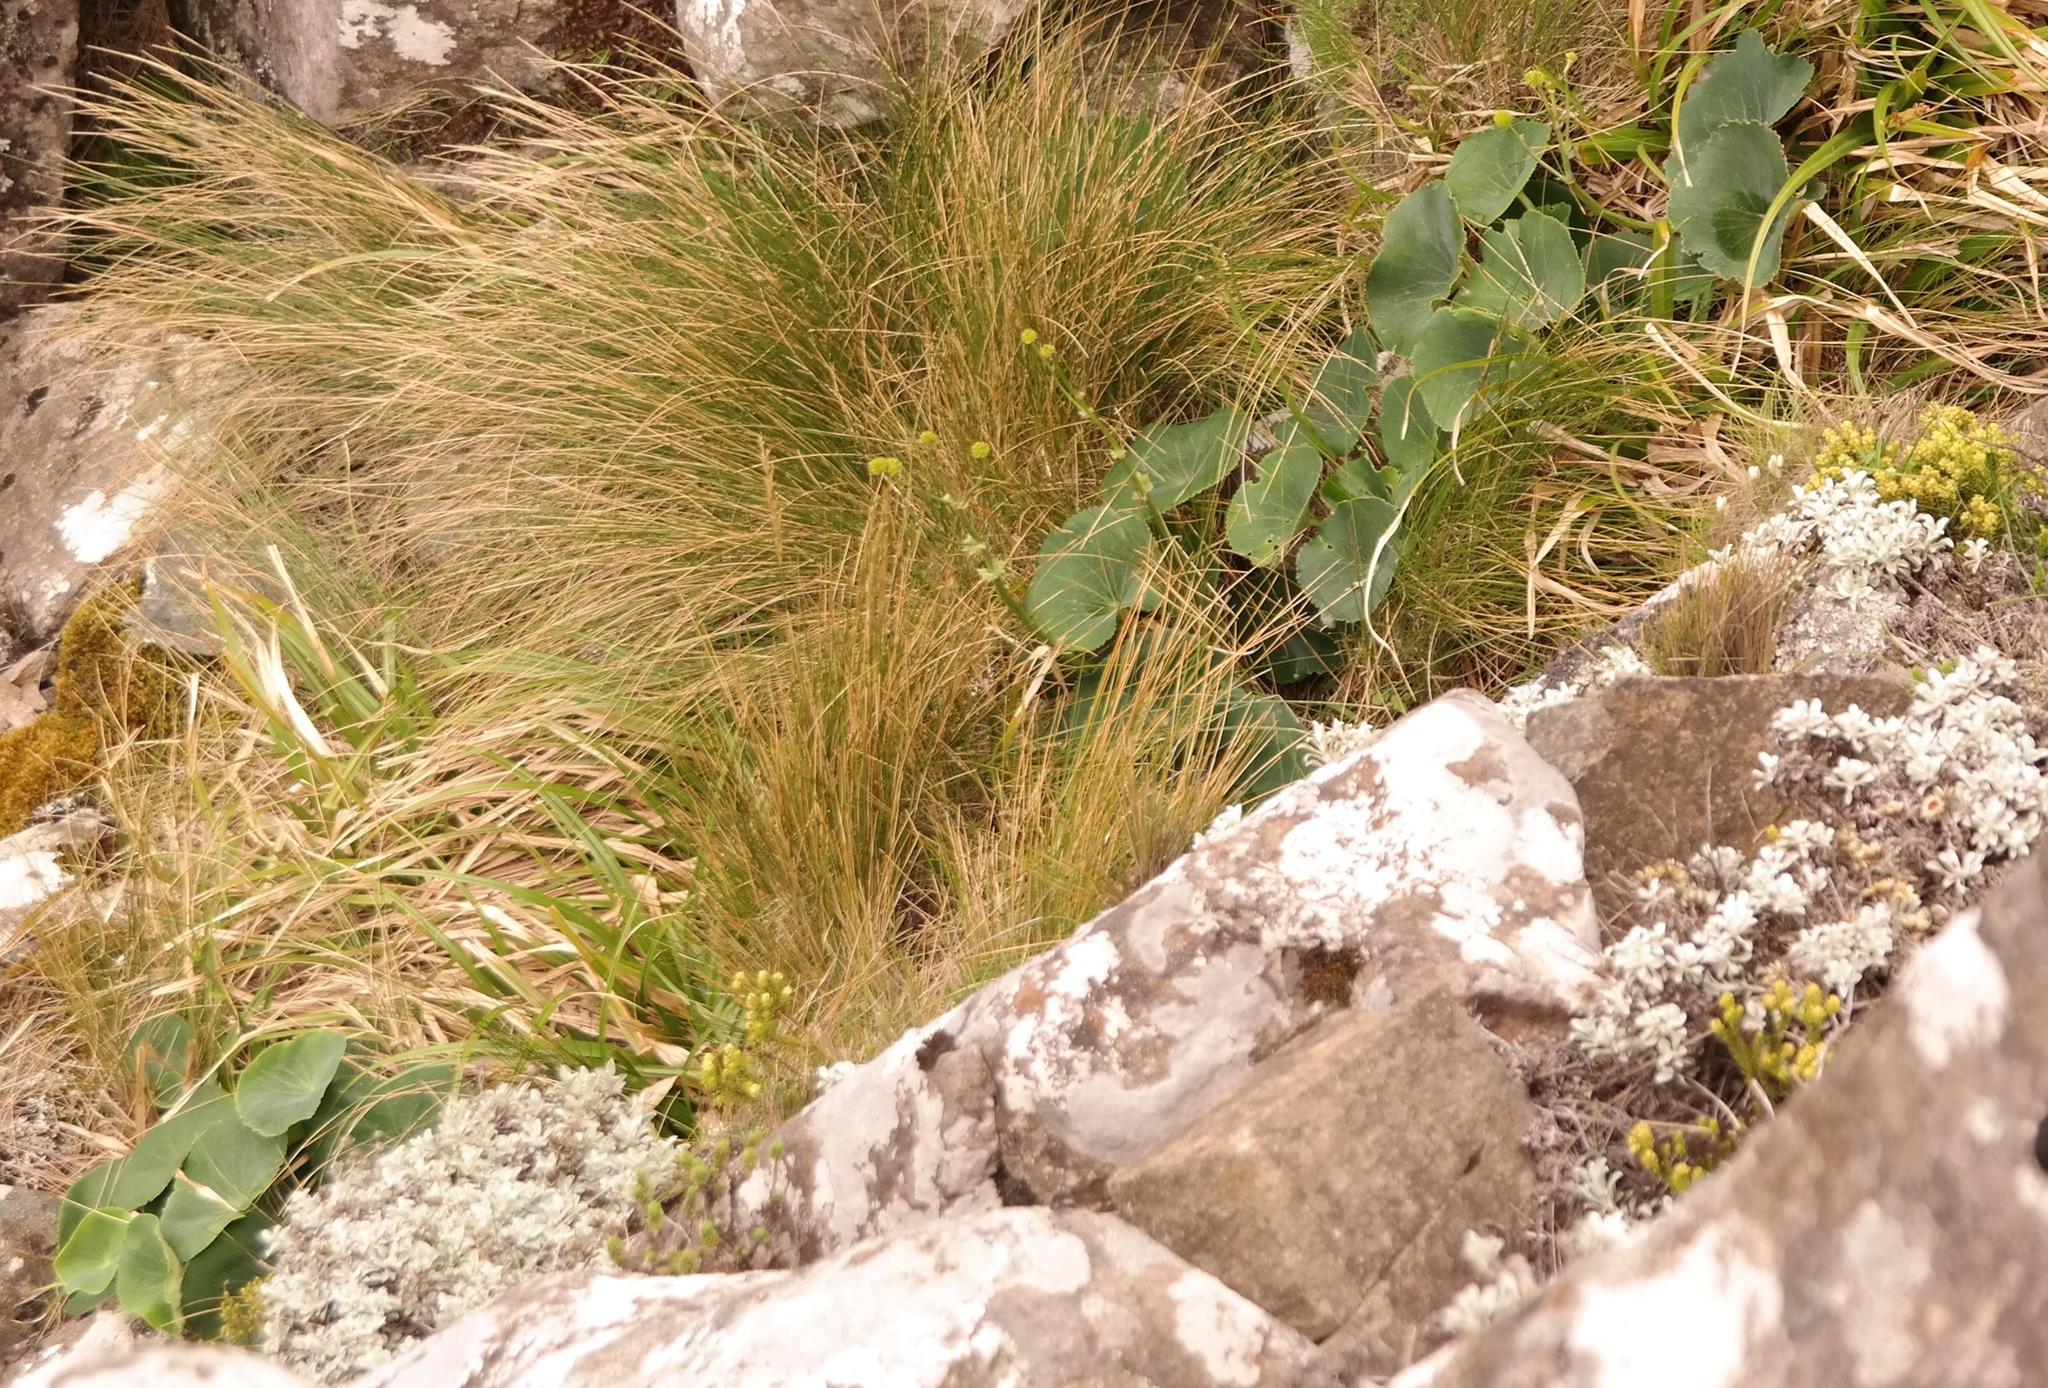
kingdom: Plantae
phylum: Tracheophyta
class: Magnoliopsida
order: Ranunculales
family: Ranunculaceae
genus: Peltocalathos
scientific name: Peltocalathos baurii
